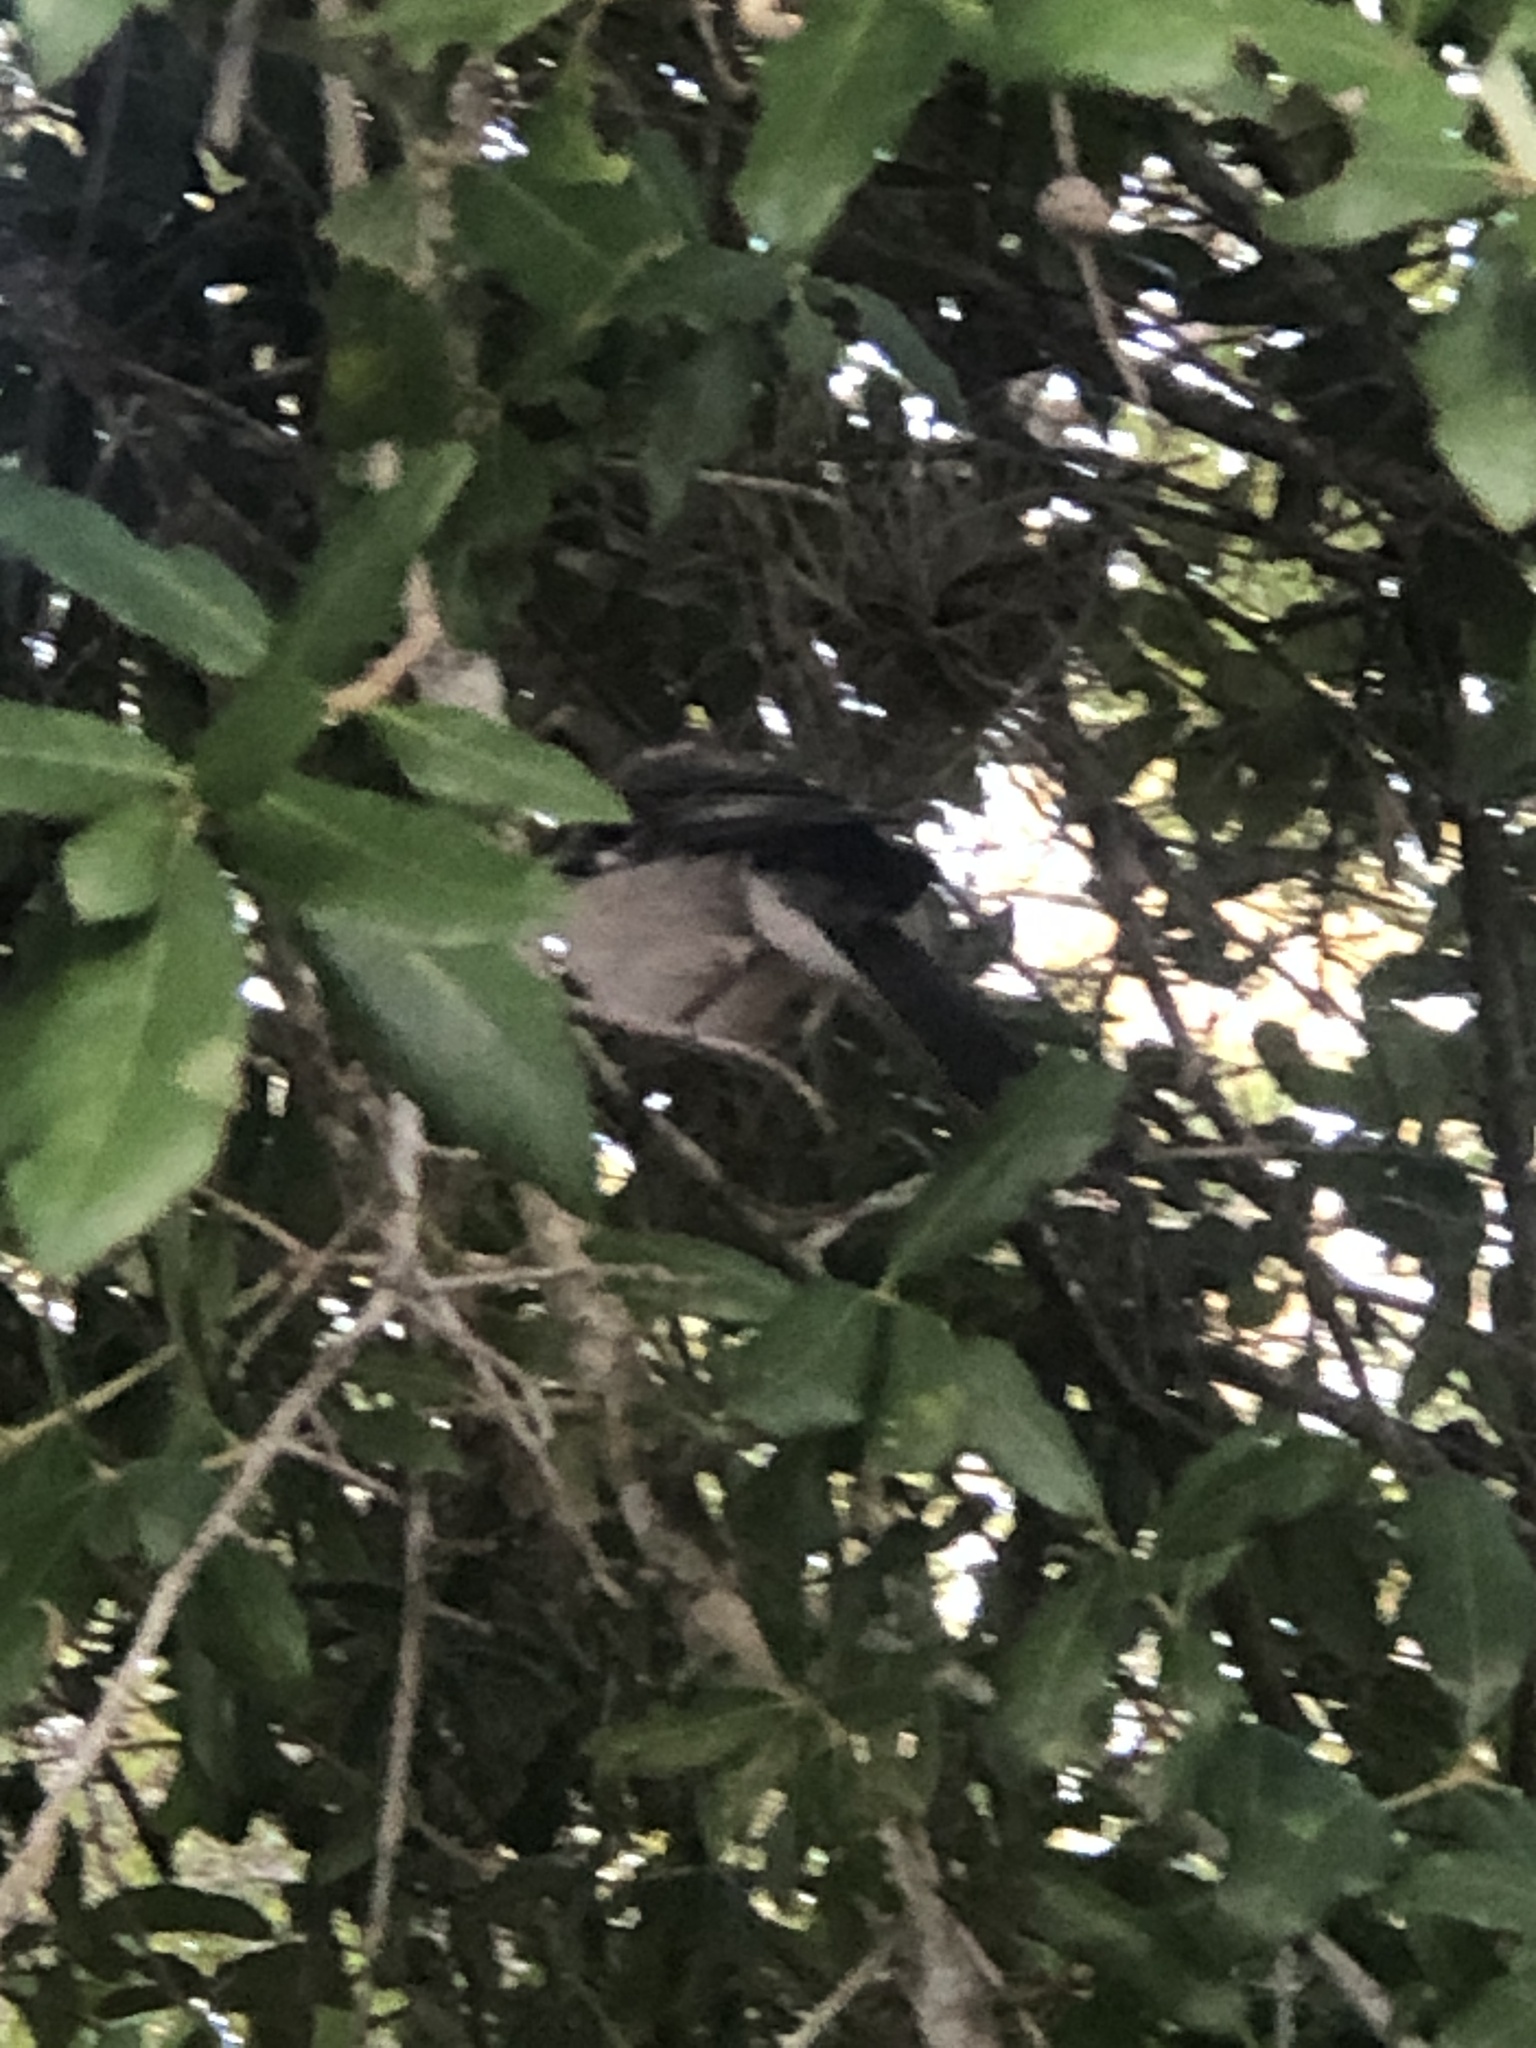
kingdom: Animalia
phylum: Chordata
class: Aves
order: Passeriformes
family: Mimidae
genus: Mimus
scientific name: Mimus polyglottos
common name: Northern mockingbird
